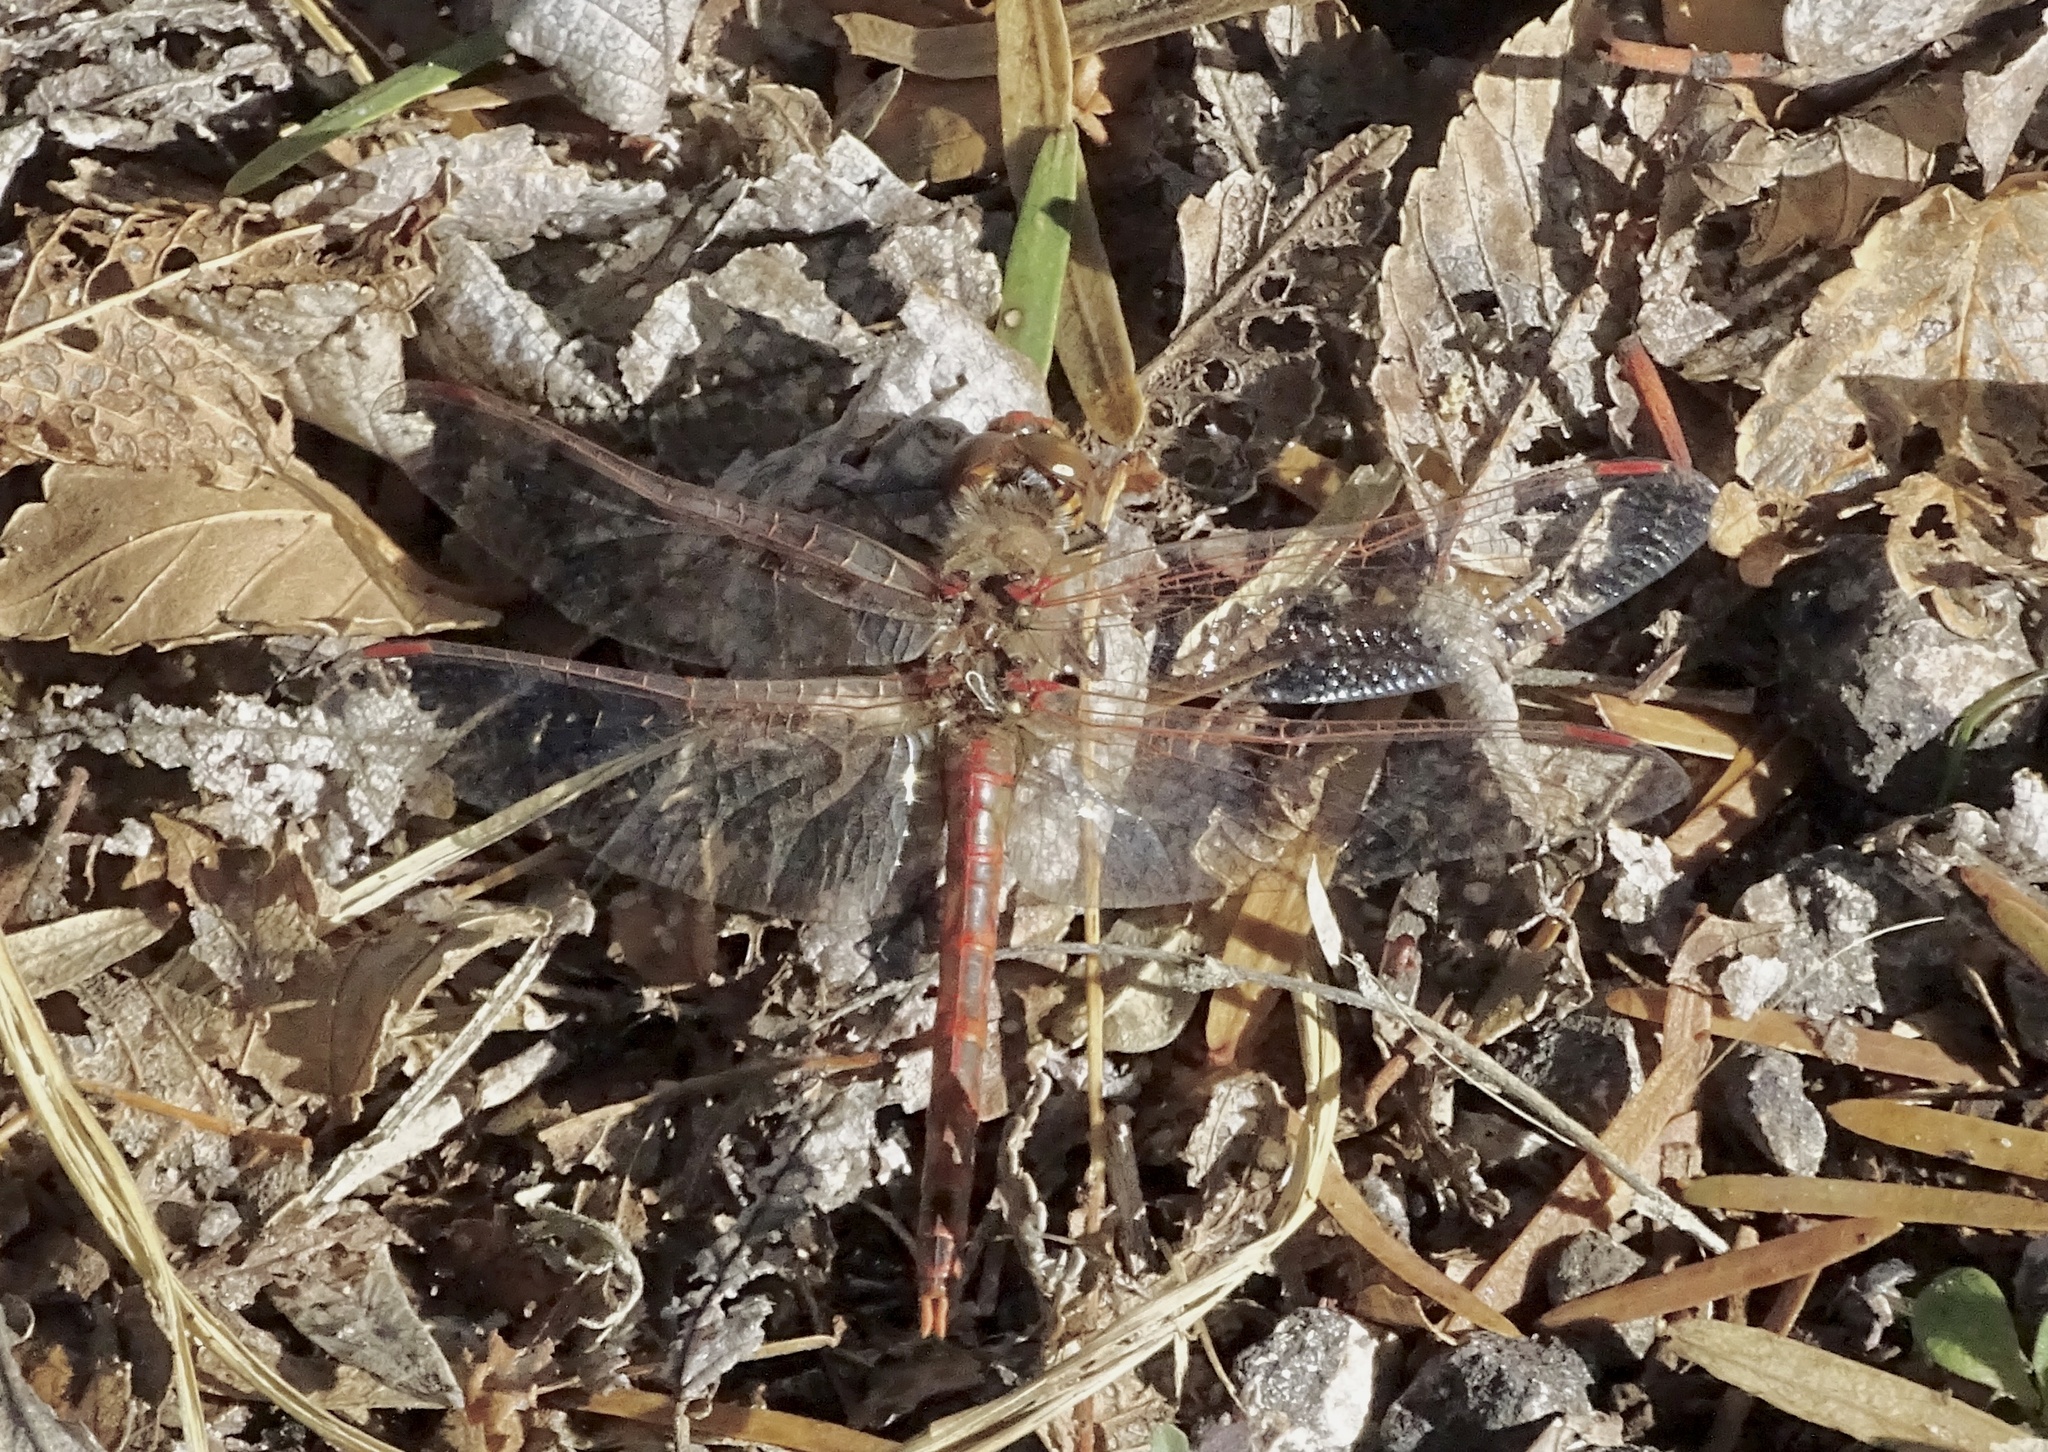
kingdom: Animalia
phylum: Arthropoda
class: Insecta
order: Odonata
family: Libellulidae
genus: Sympetrum
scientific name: Sympetrum corruptum
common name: Variegated meadowhawk
